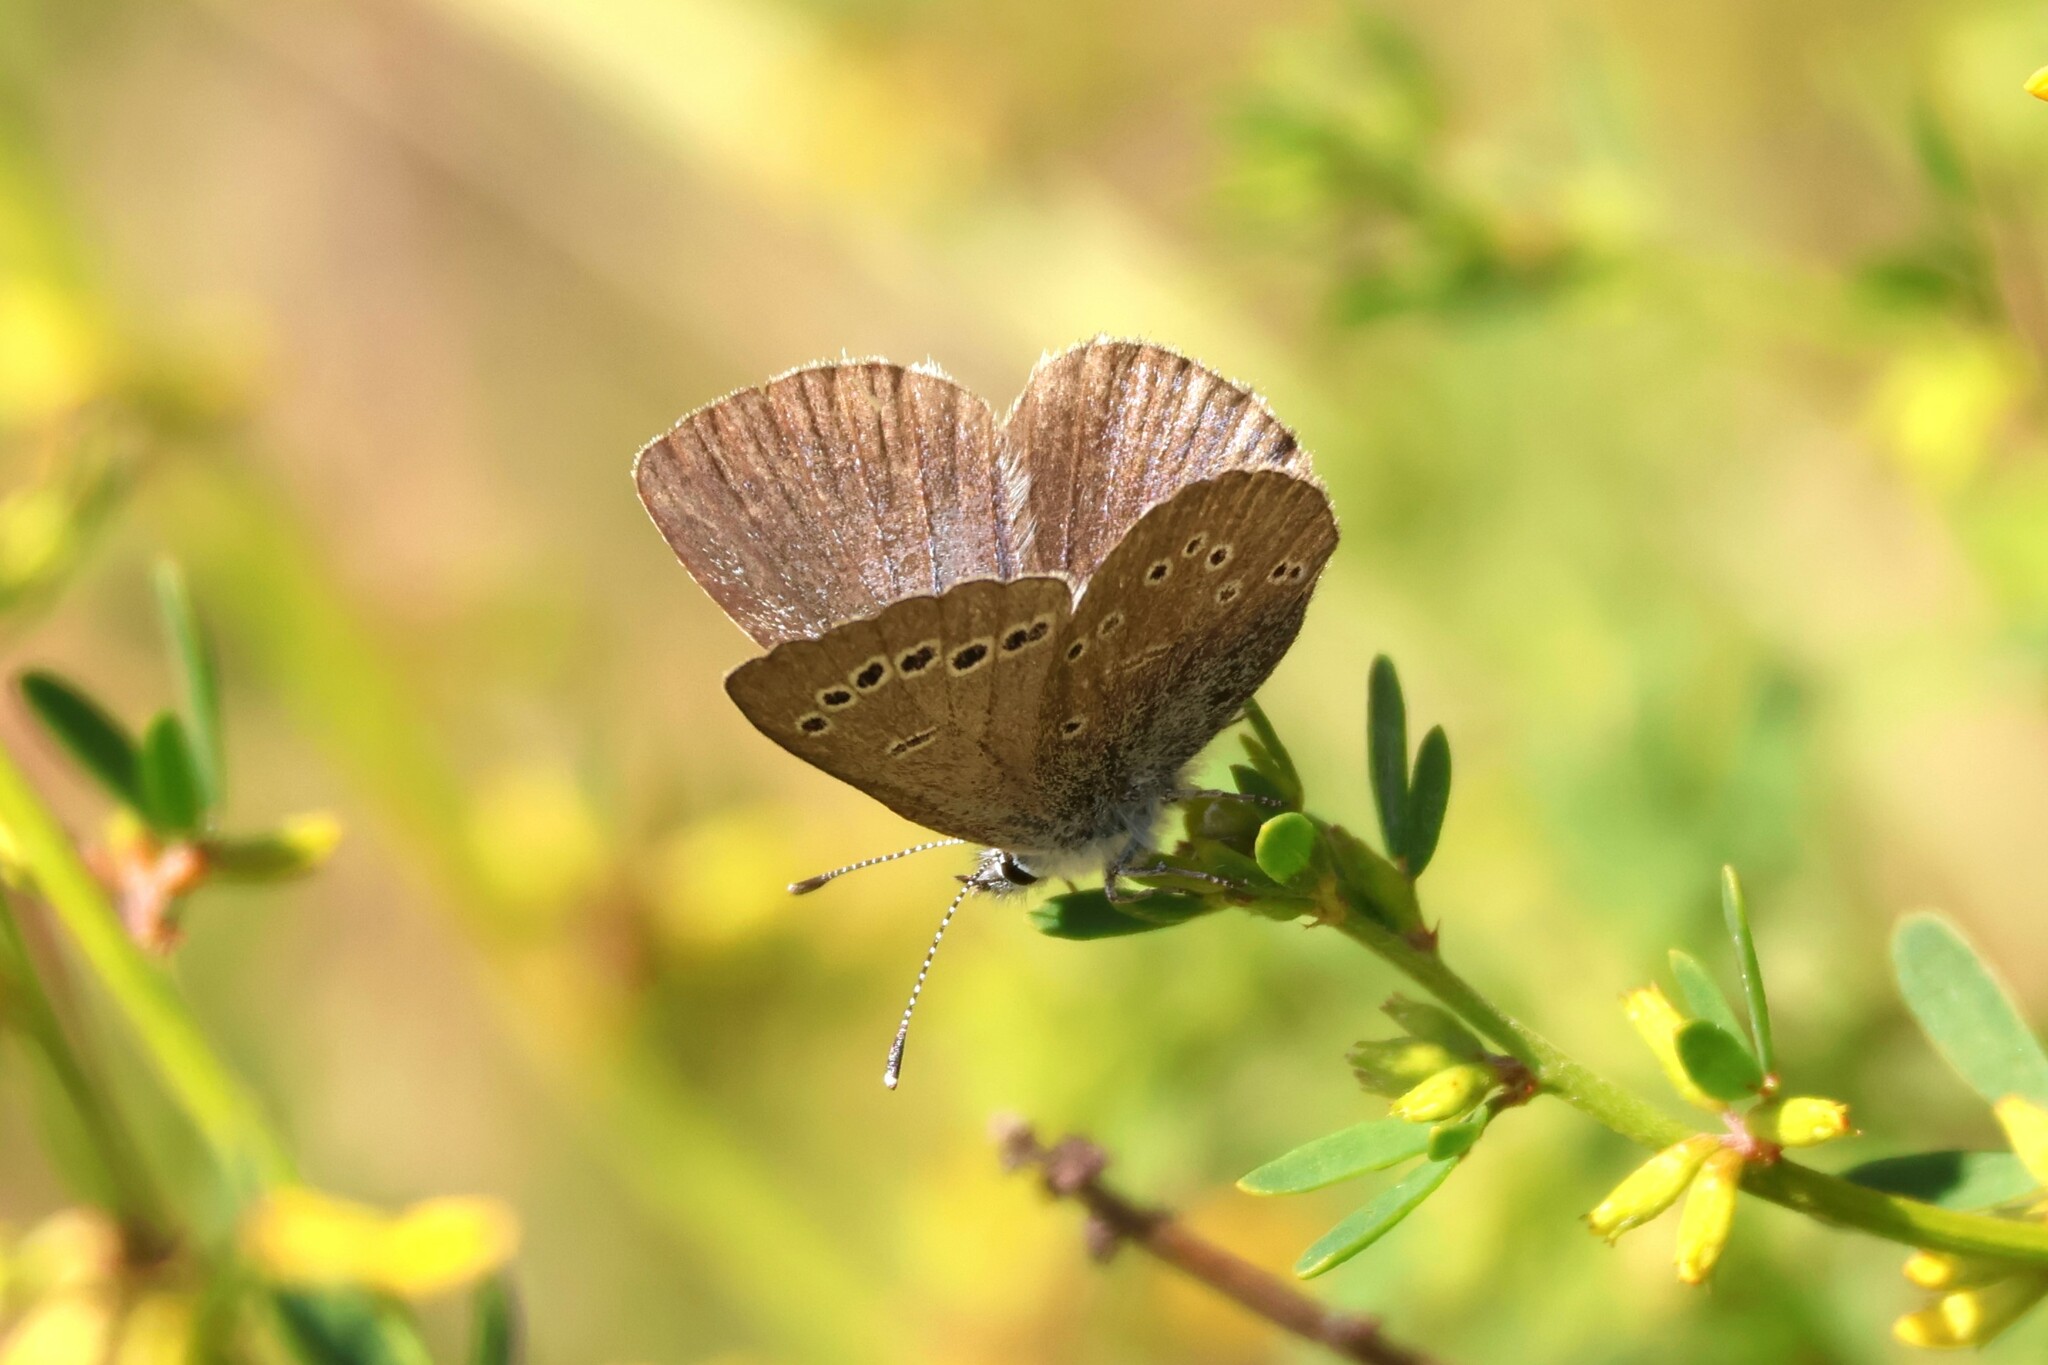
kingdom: Animalia
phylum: Arthropoda
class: Insecta
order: Lepidoptera
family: Lycaenidae
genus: Glaucopsyche
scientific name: Glaucopsyche lygdamus
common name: Silvery blue
